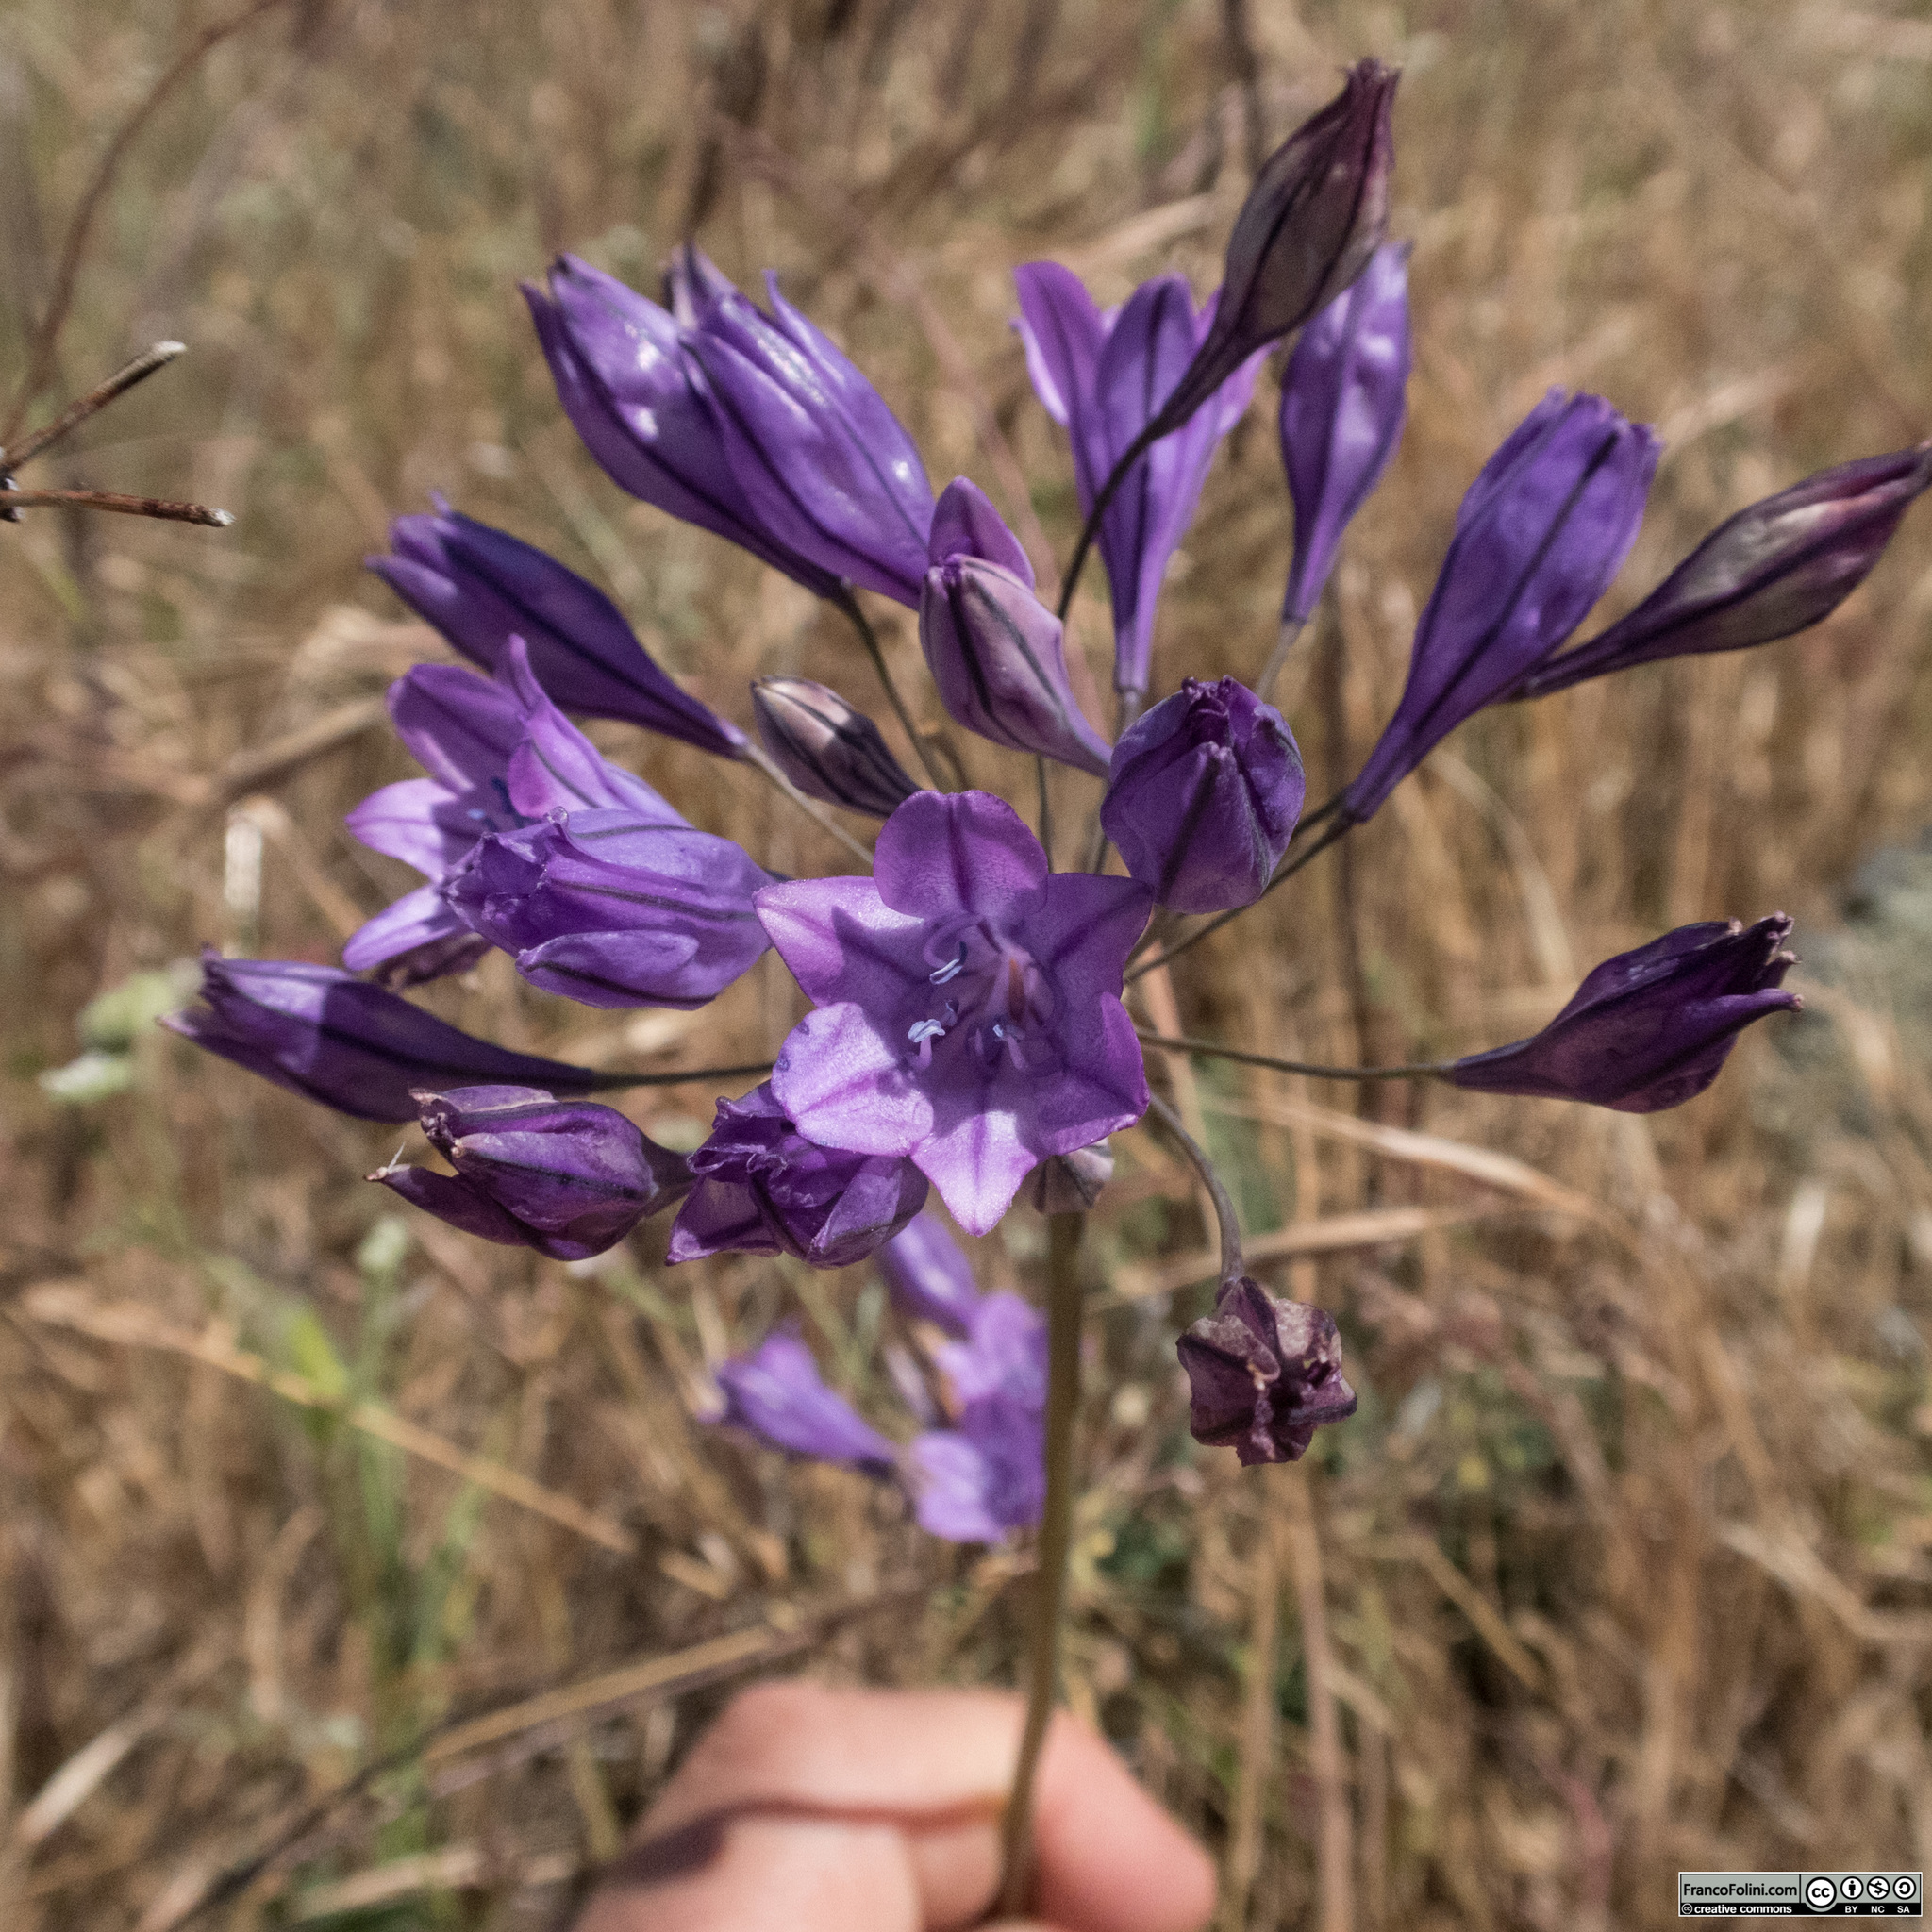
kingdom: Plantae
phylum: Tracheophyta
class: Liliopsida
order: Asparagales
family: Asparagaceae
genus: Triteleia
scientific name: Triteleia laxa
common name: Triplet-lily
